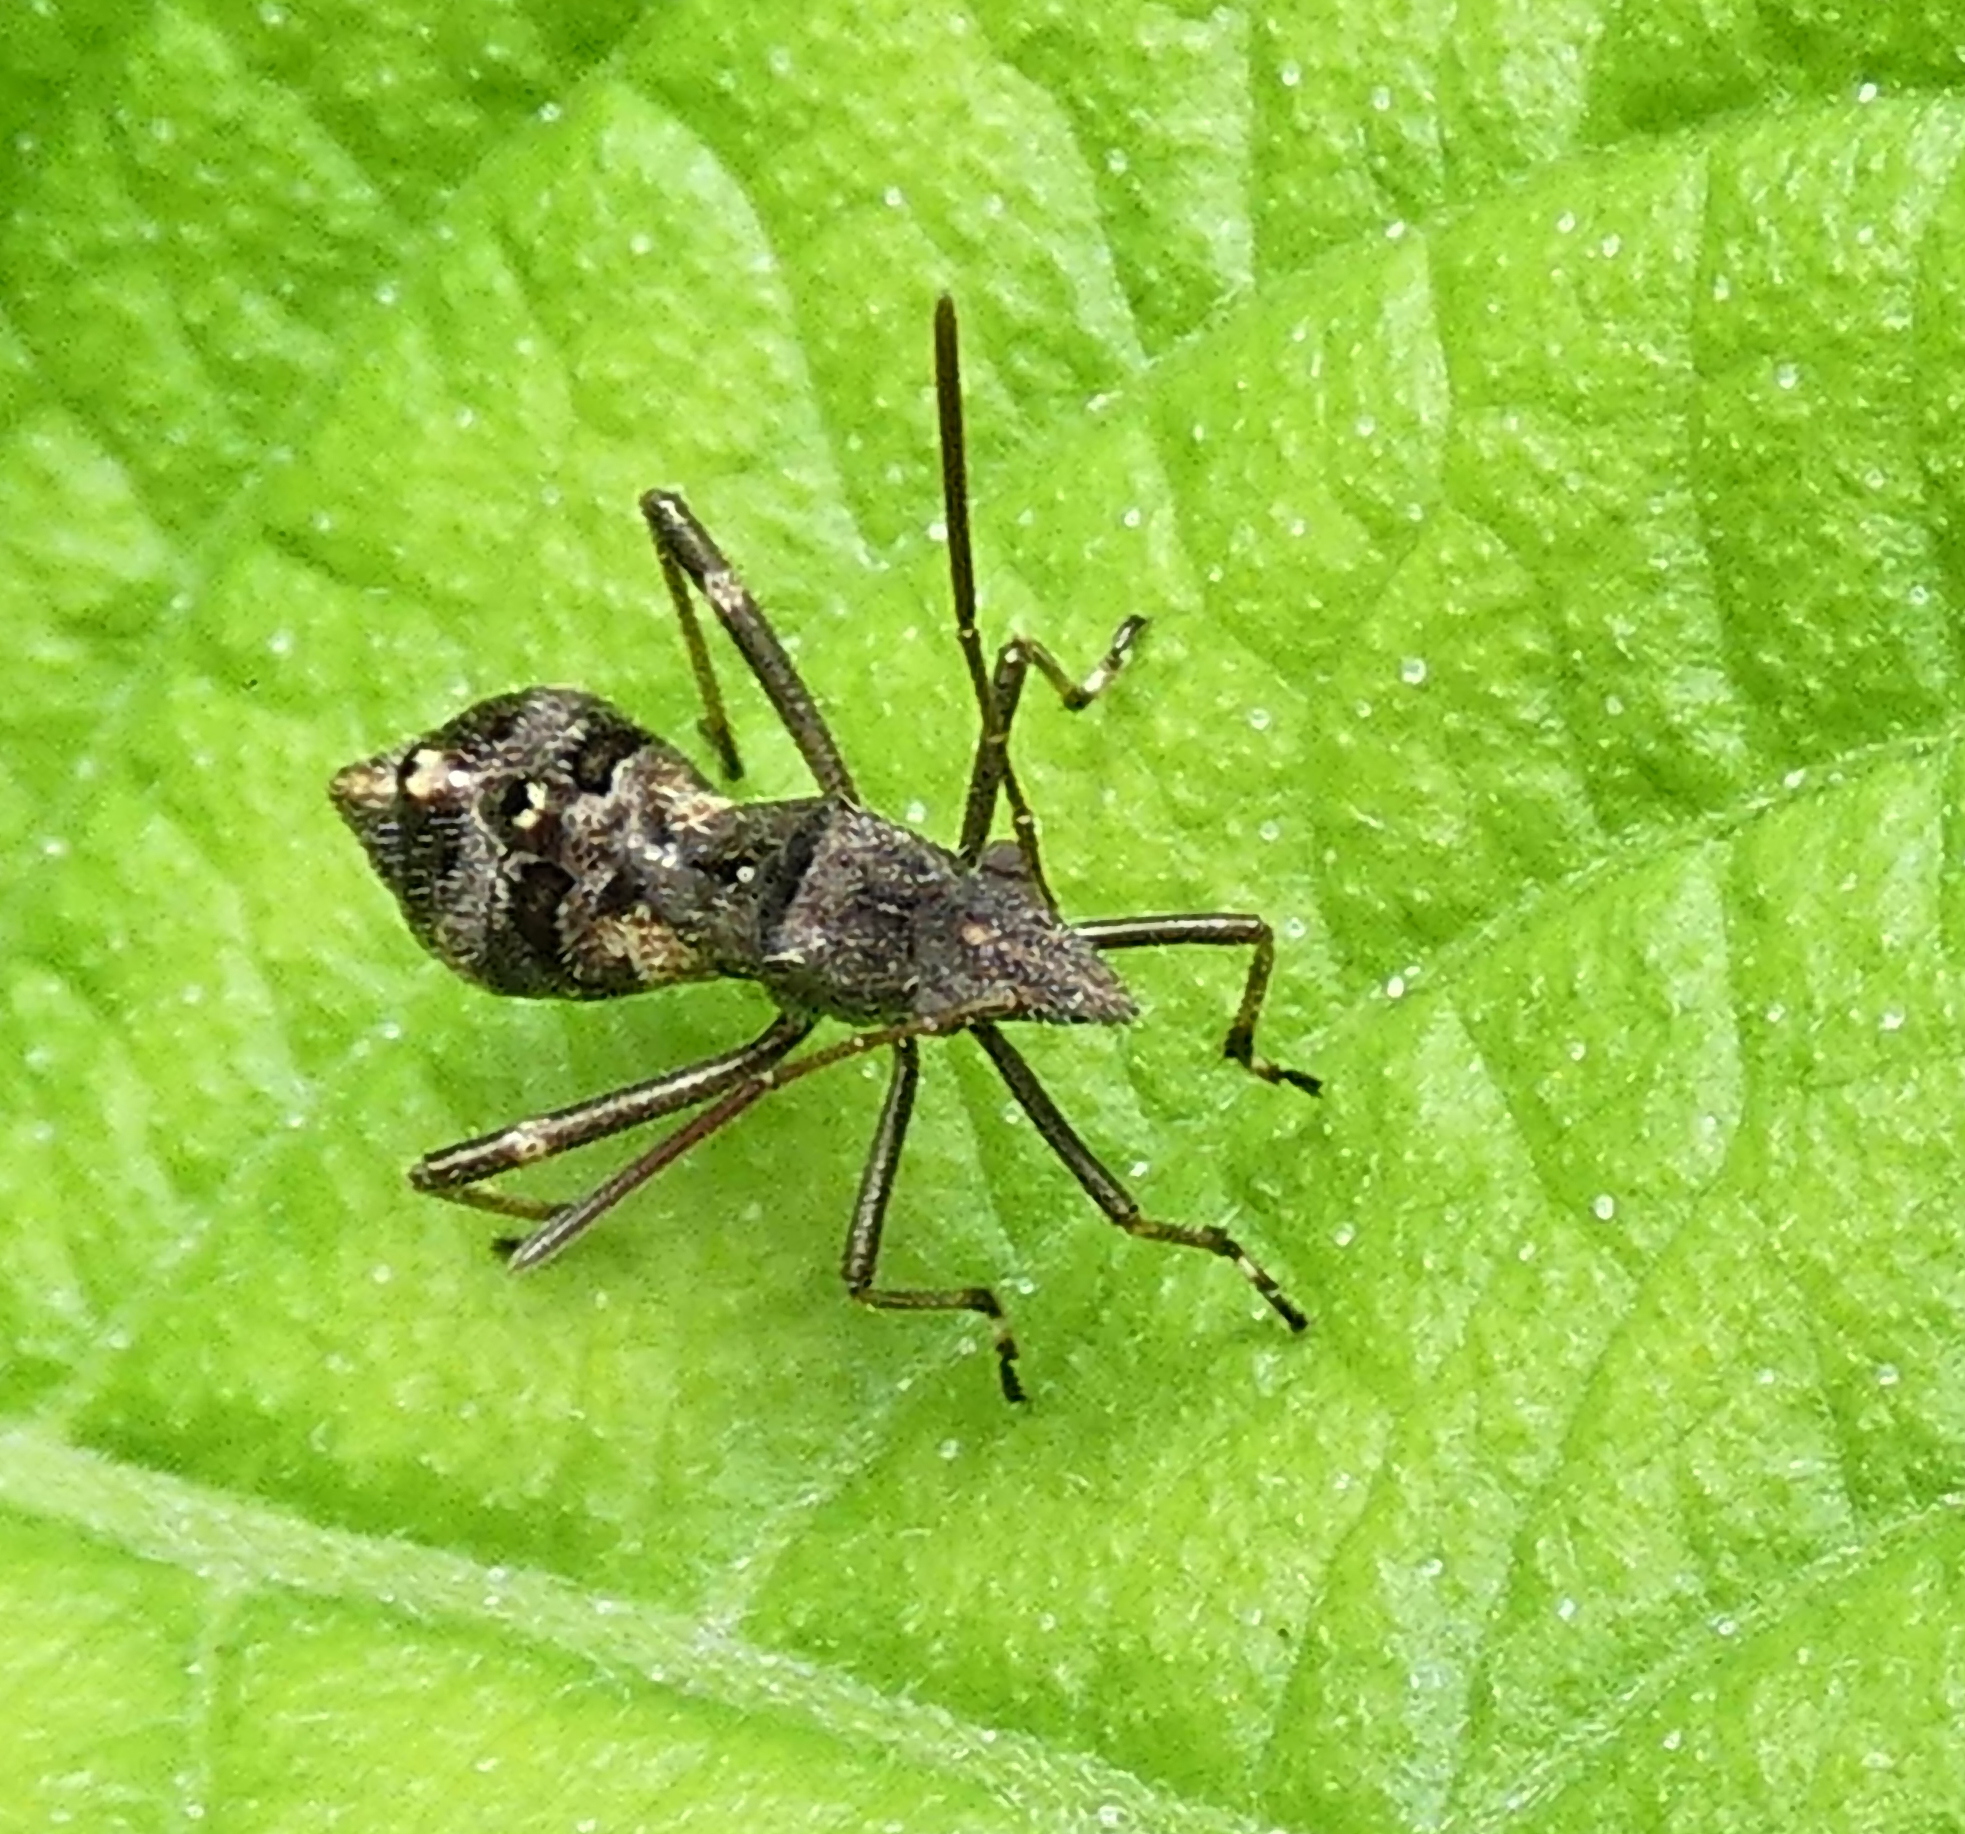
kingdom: Animalia
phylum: Arthropoda
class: Insecta
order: Hemiptera
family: Alydidae
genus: Neomegalotomus
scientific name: Neomegalotomus parvus
